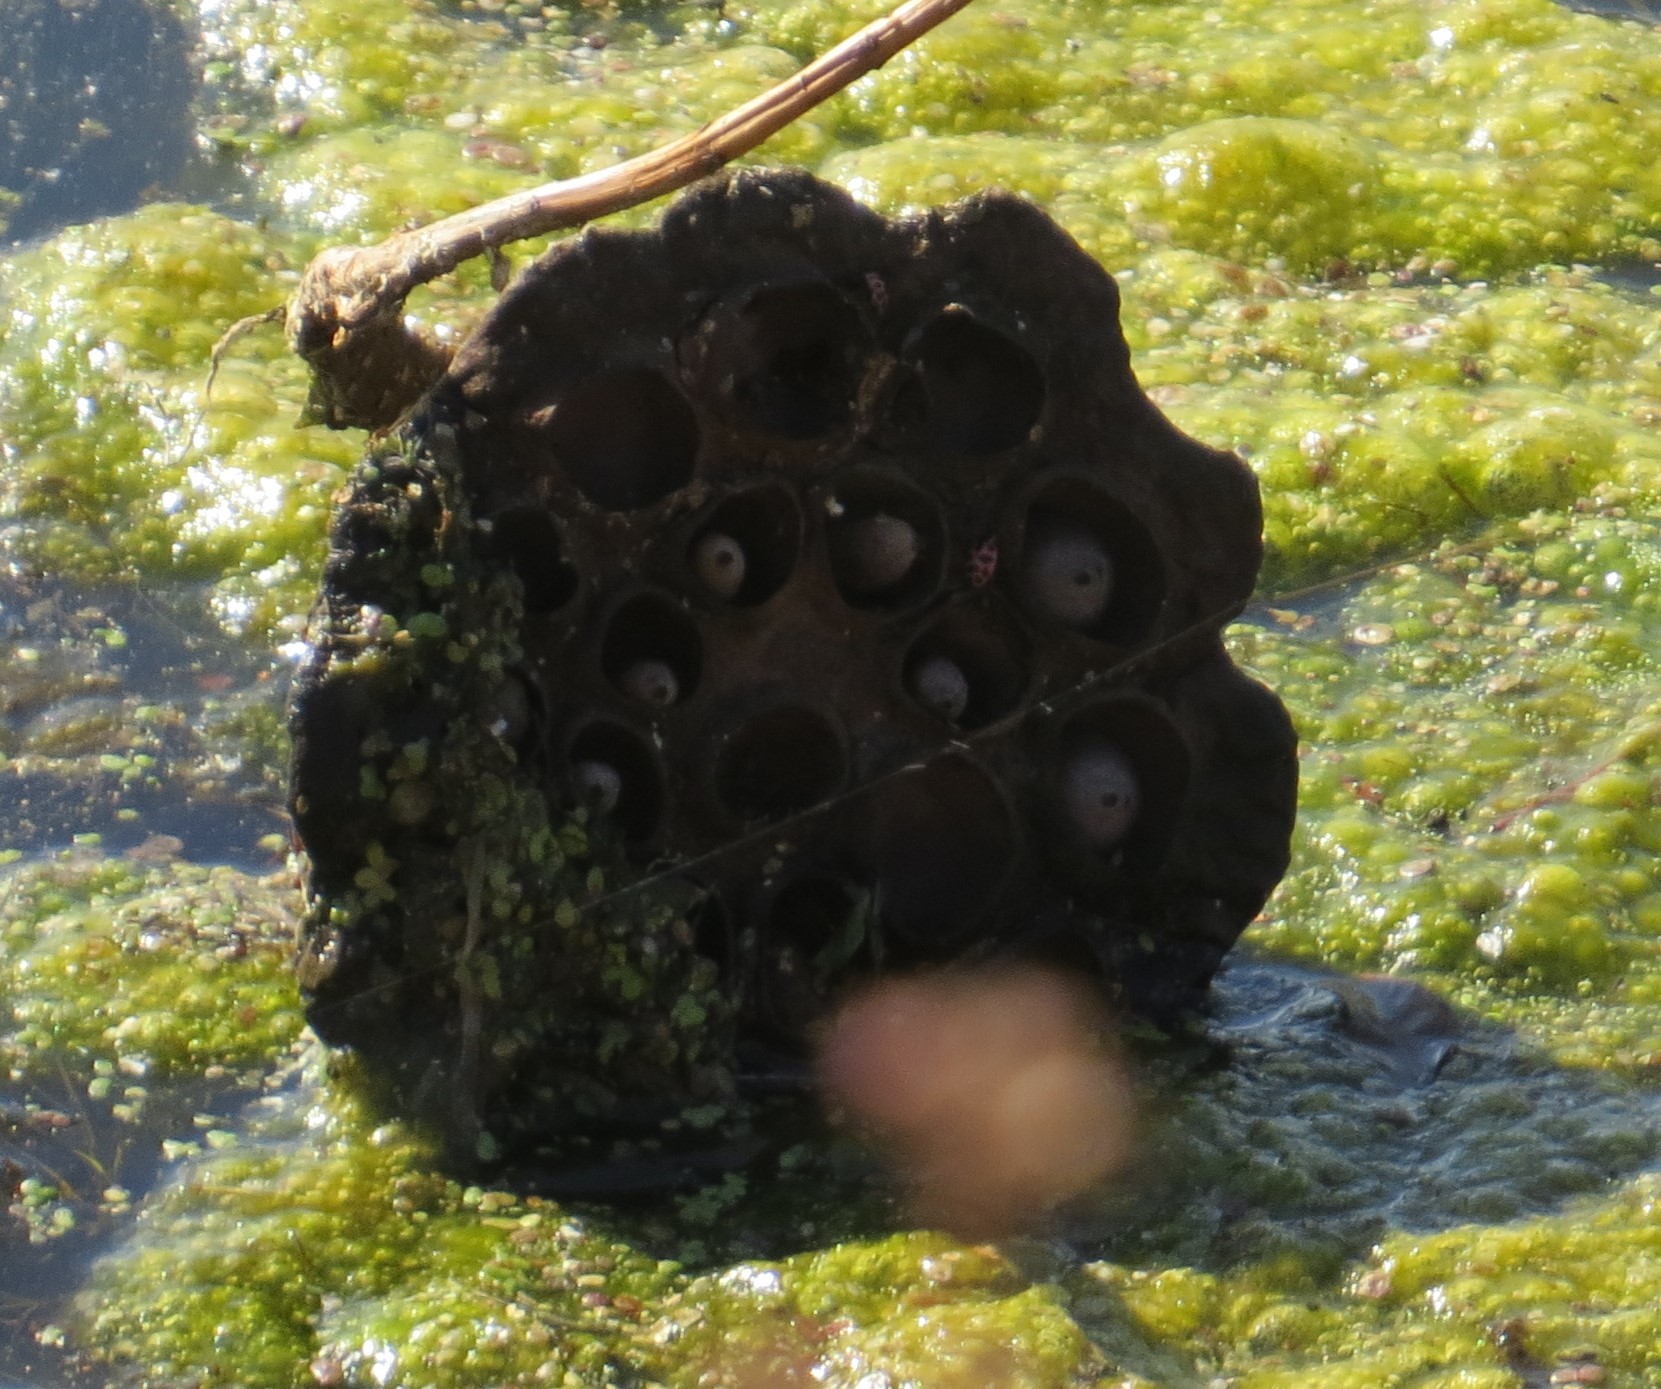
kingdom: Plantae
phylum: Tracheophyta
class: Magnoliopsida
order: Proteales
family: Nelumbonaceae
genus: Nelumbo
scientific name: Nelumbo lutea
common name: American lotus
